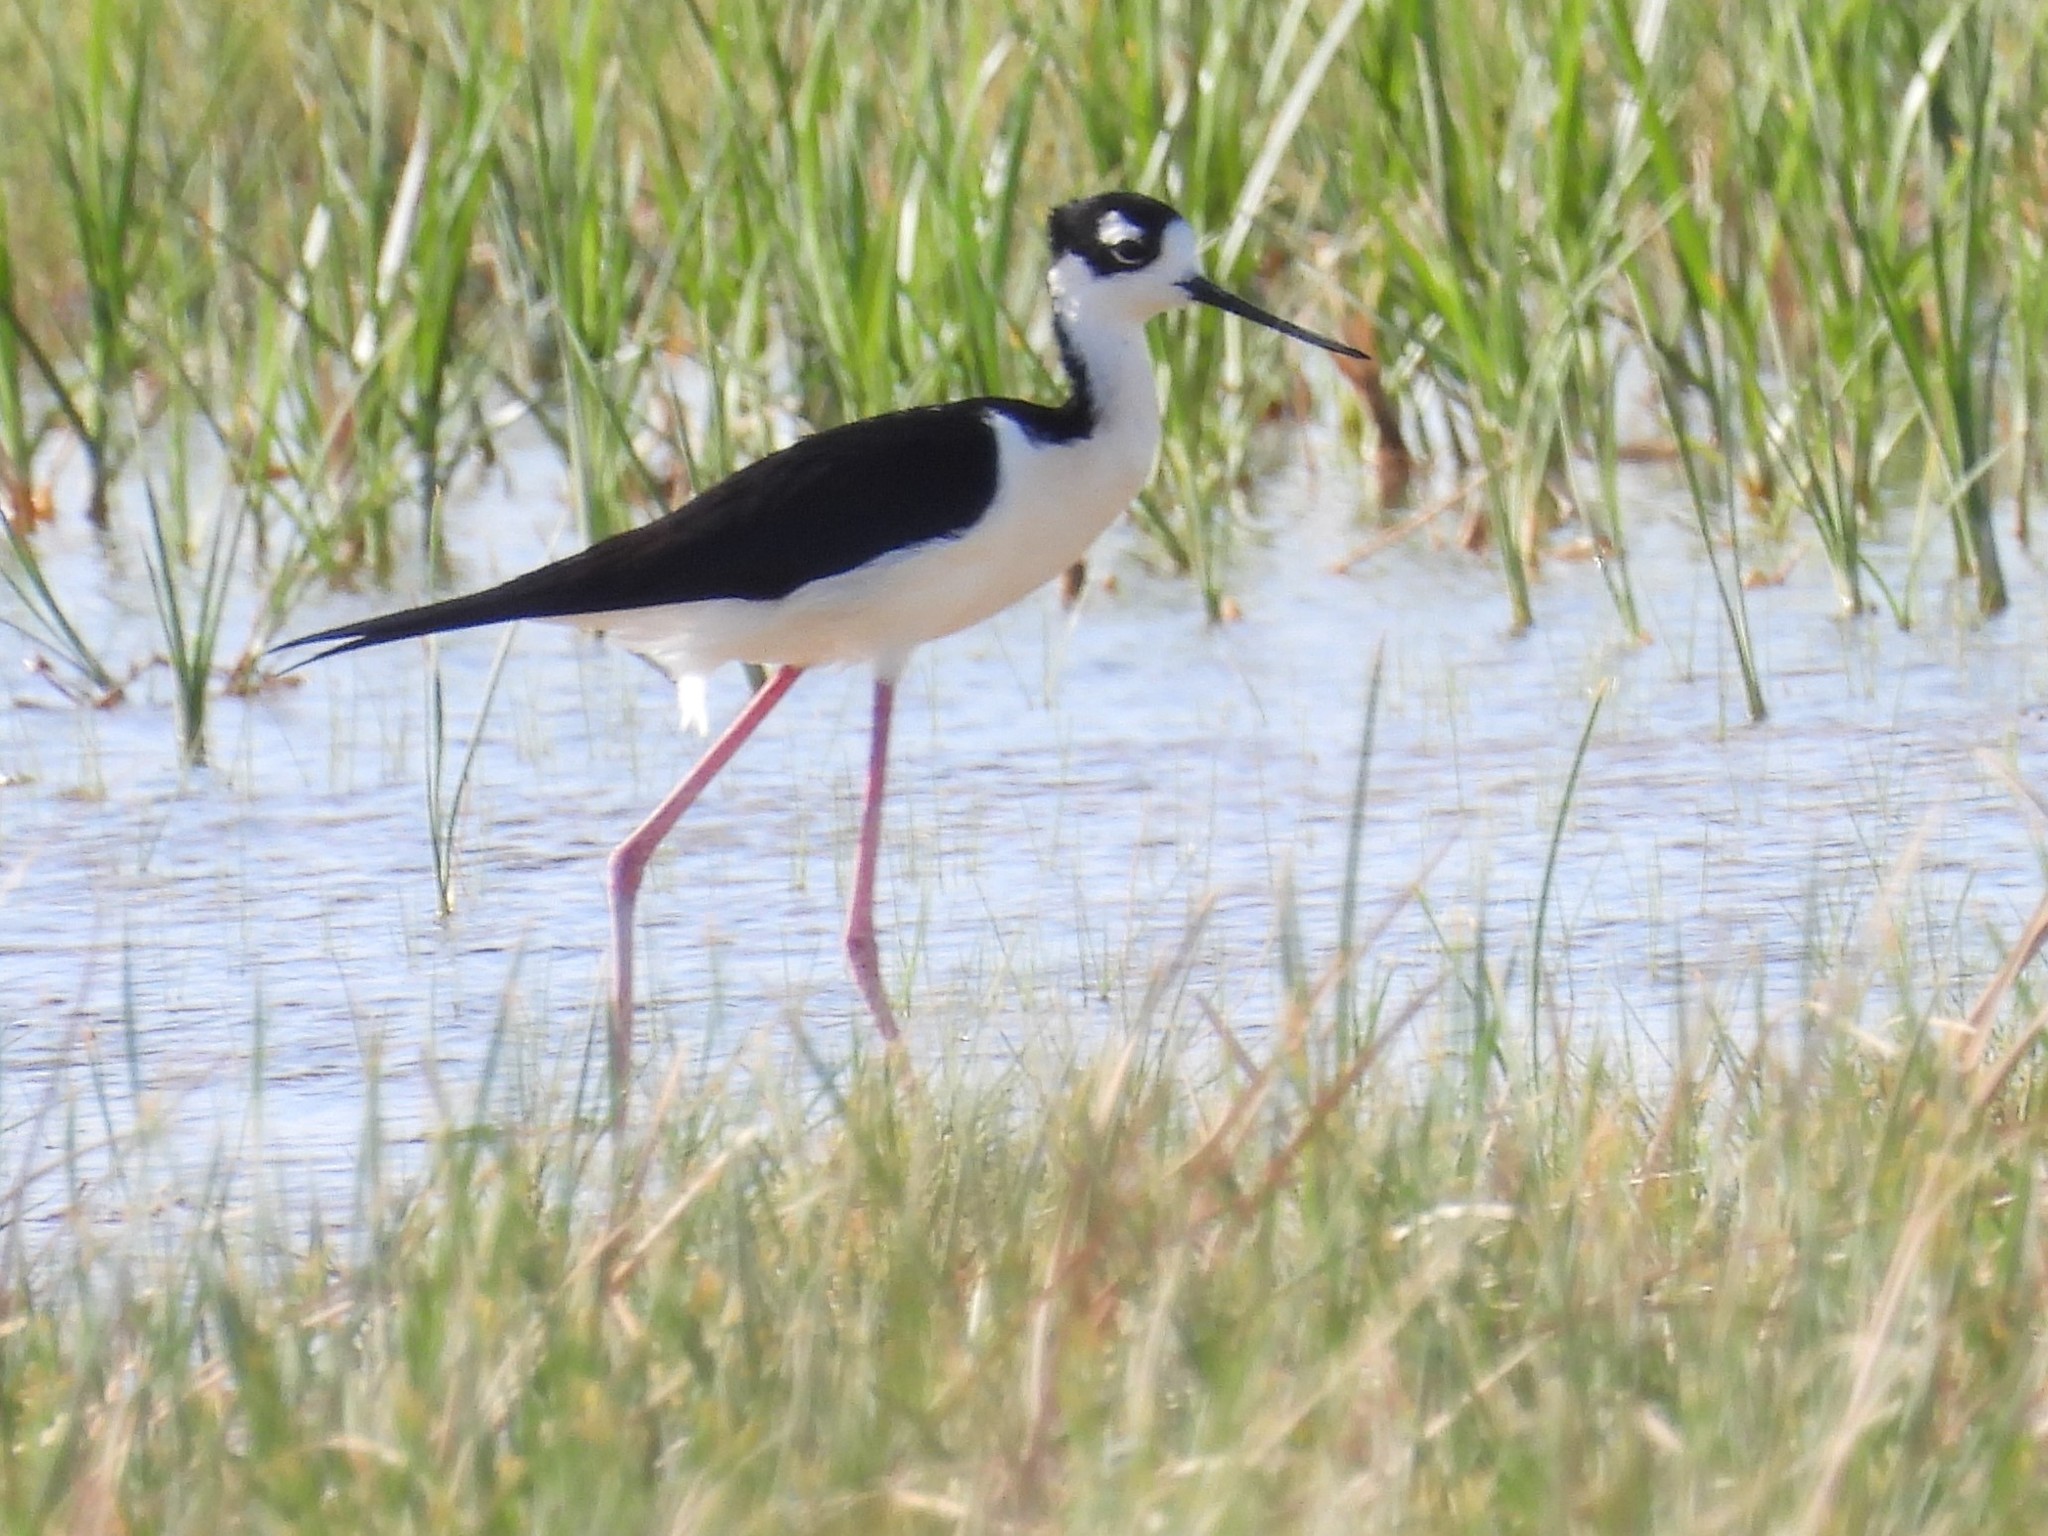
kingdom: Animalia
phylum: Chordata
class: Aves
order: Charadriiformes
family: Recurvirostridae
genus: Himantopus
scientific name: Himantopus mexicanus
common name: Black-necked stilt
